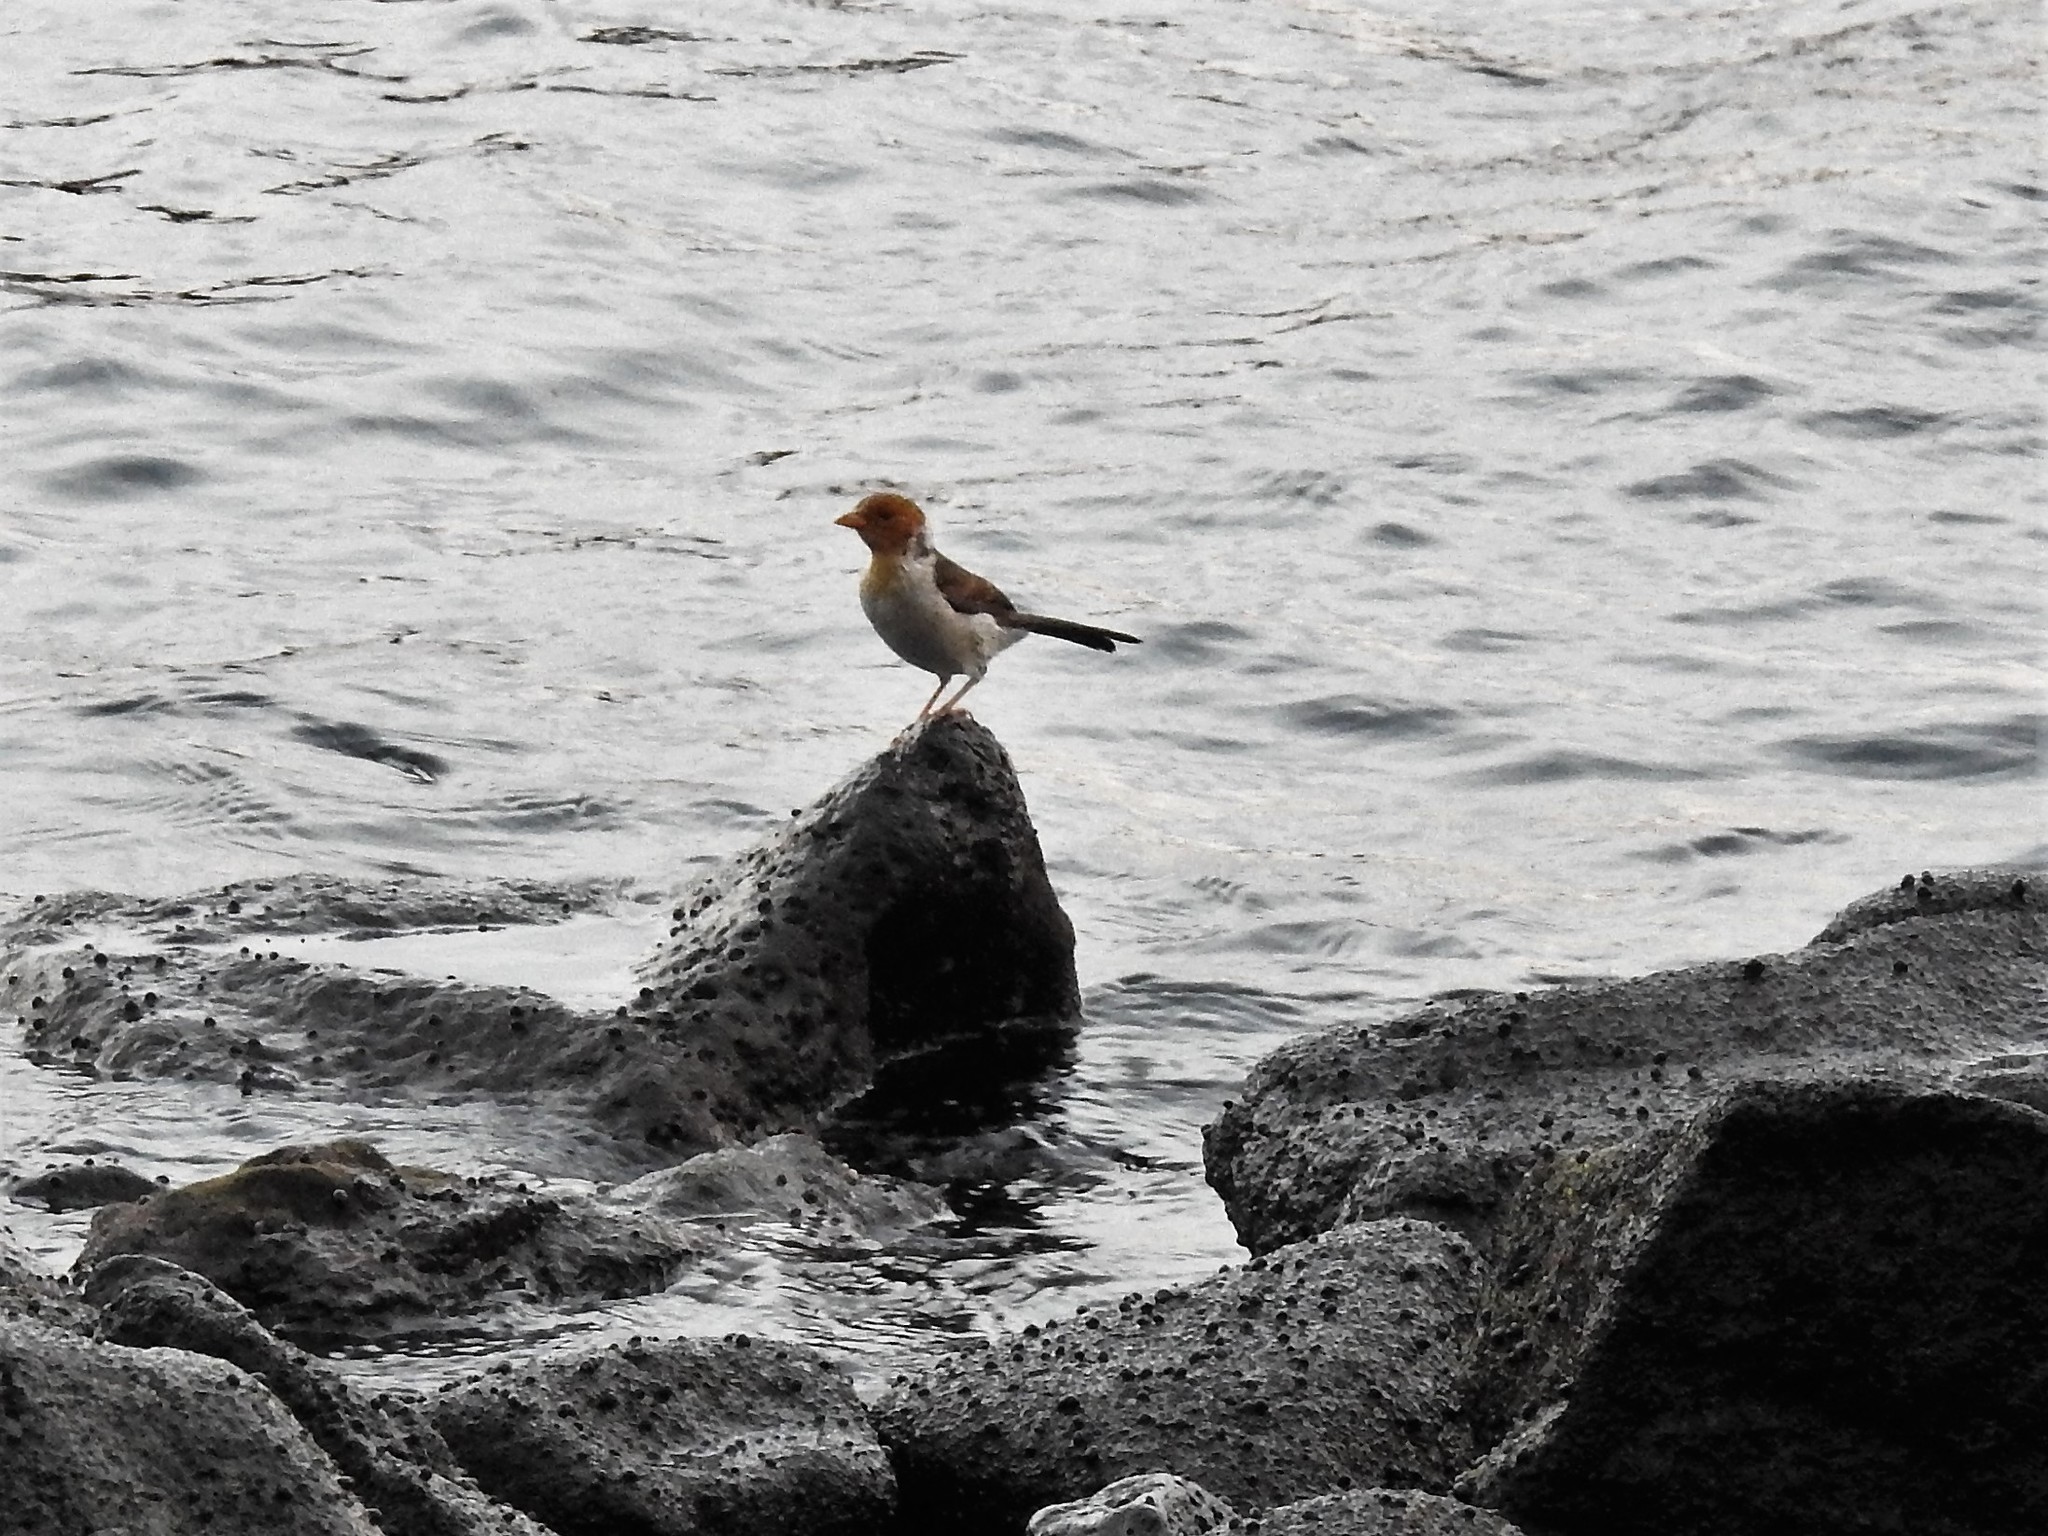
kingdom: Animalia
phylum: Chordata
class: Aves
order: Passeriformes
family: Thraupidae
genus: Paroaria
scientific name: Paroaria capitata
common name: Yellow-billed cardinal
